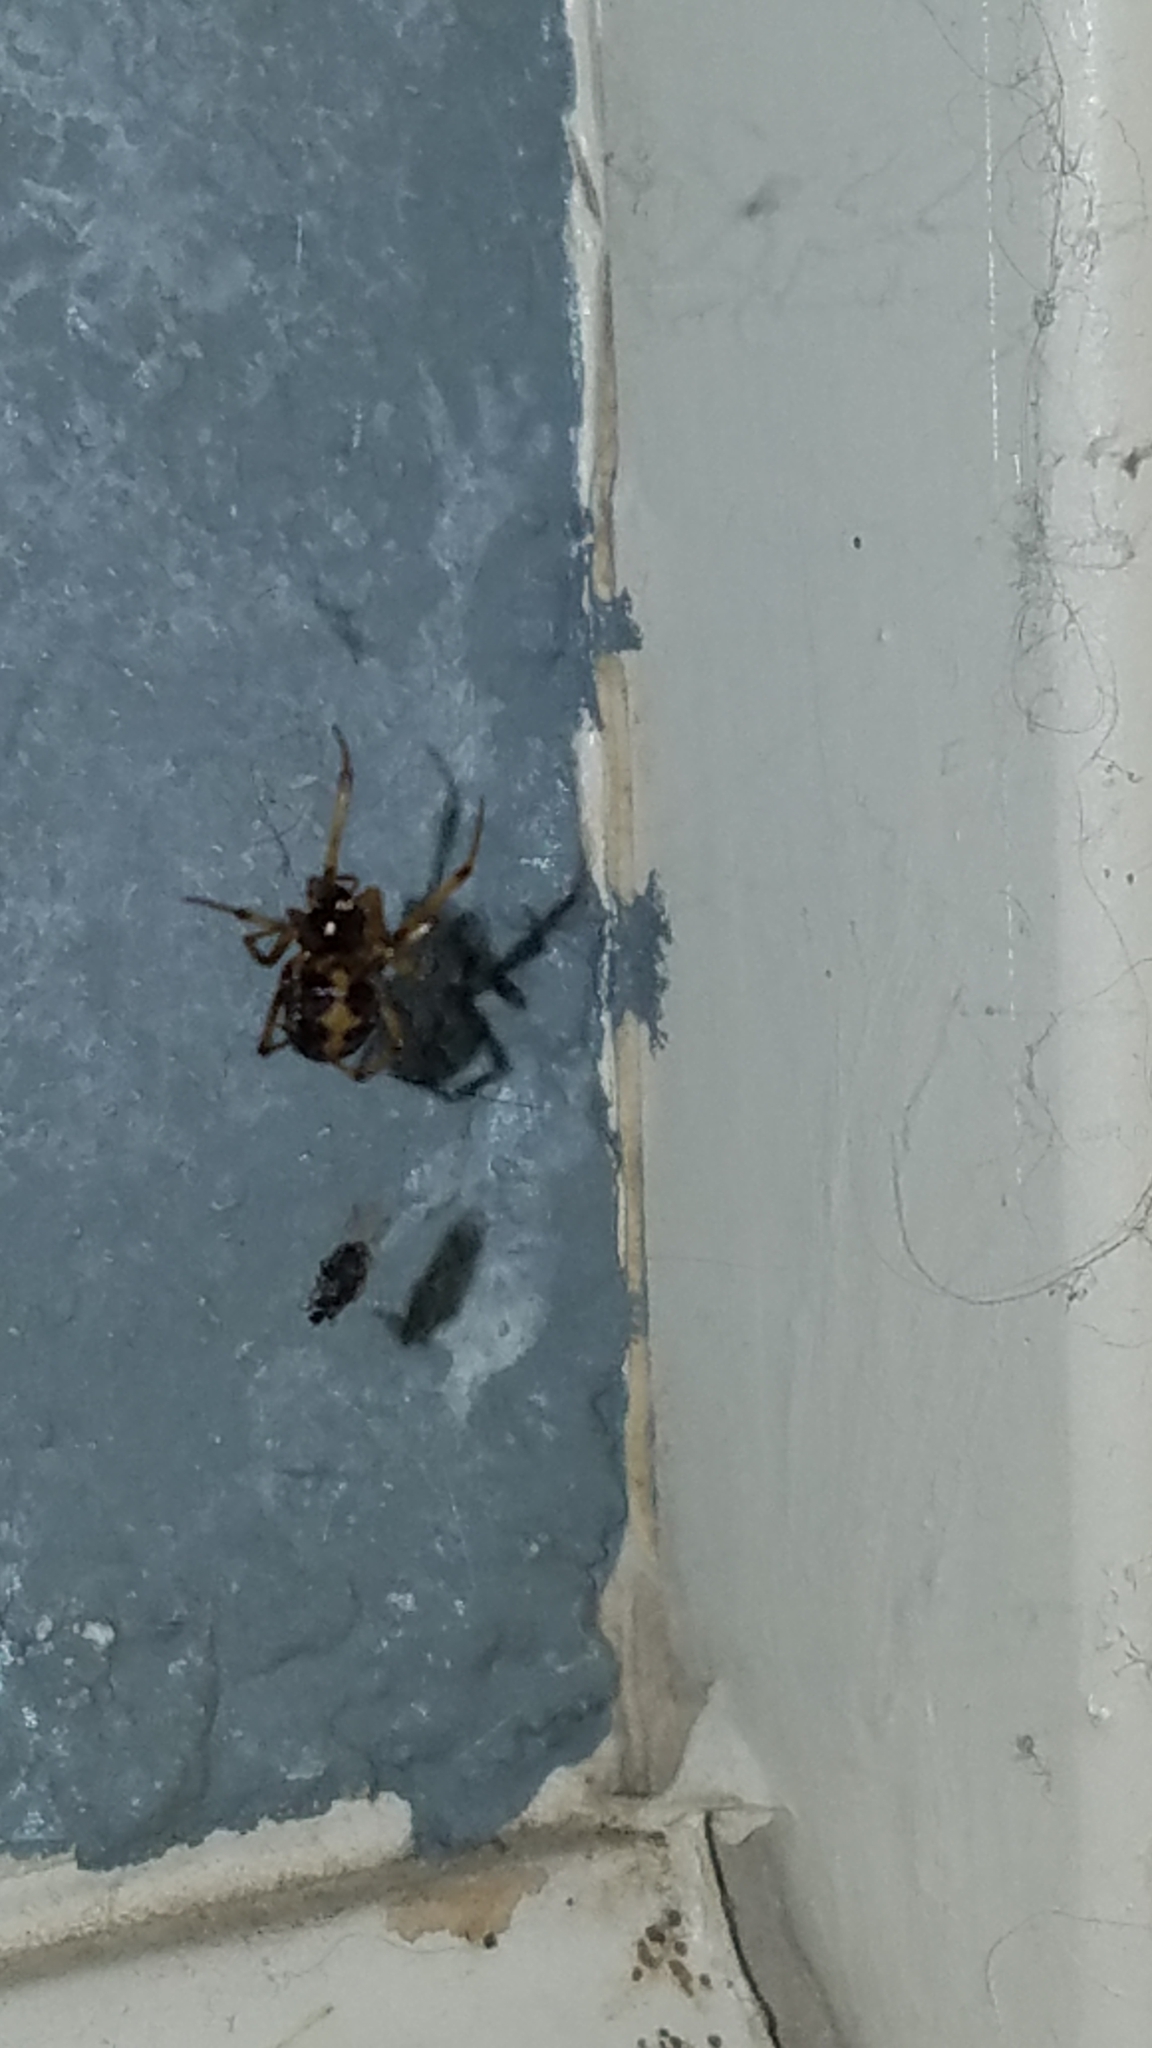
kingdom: Animalia
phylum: Arthropoda
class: Arachnida
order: Araneae
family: Theridiidae
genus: Steatoda
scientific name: Steatoda triangulosa
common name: Triangulate bud spider
